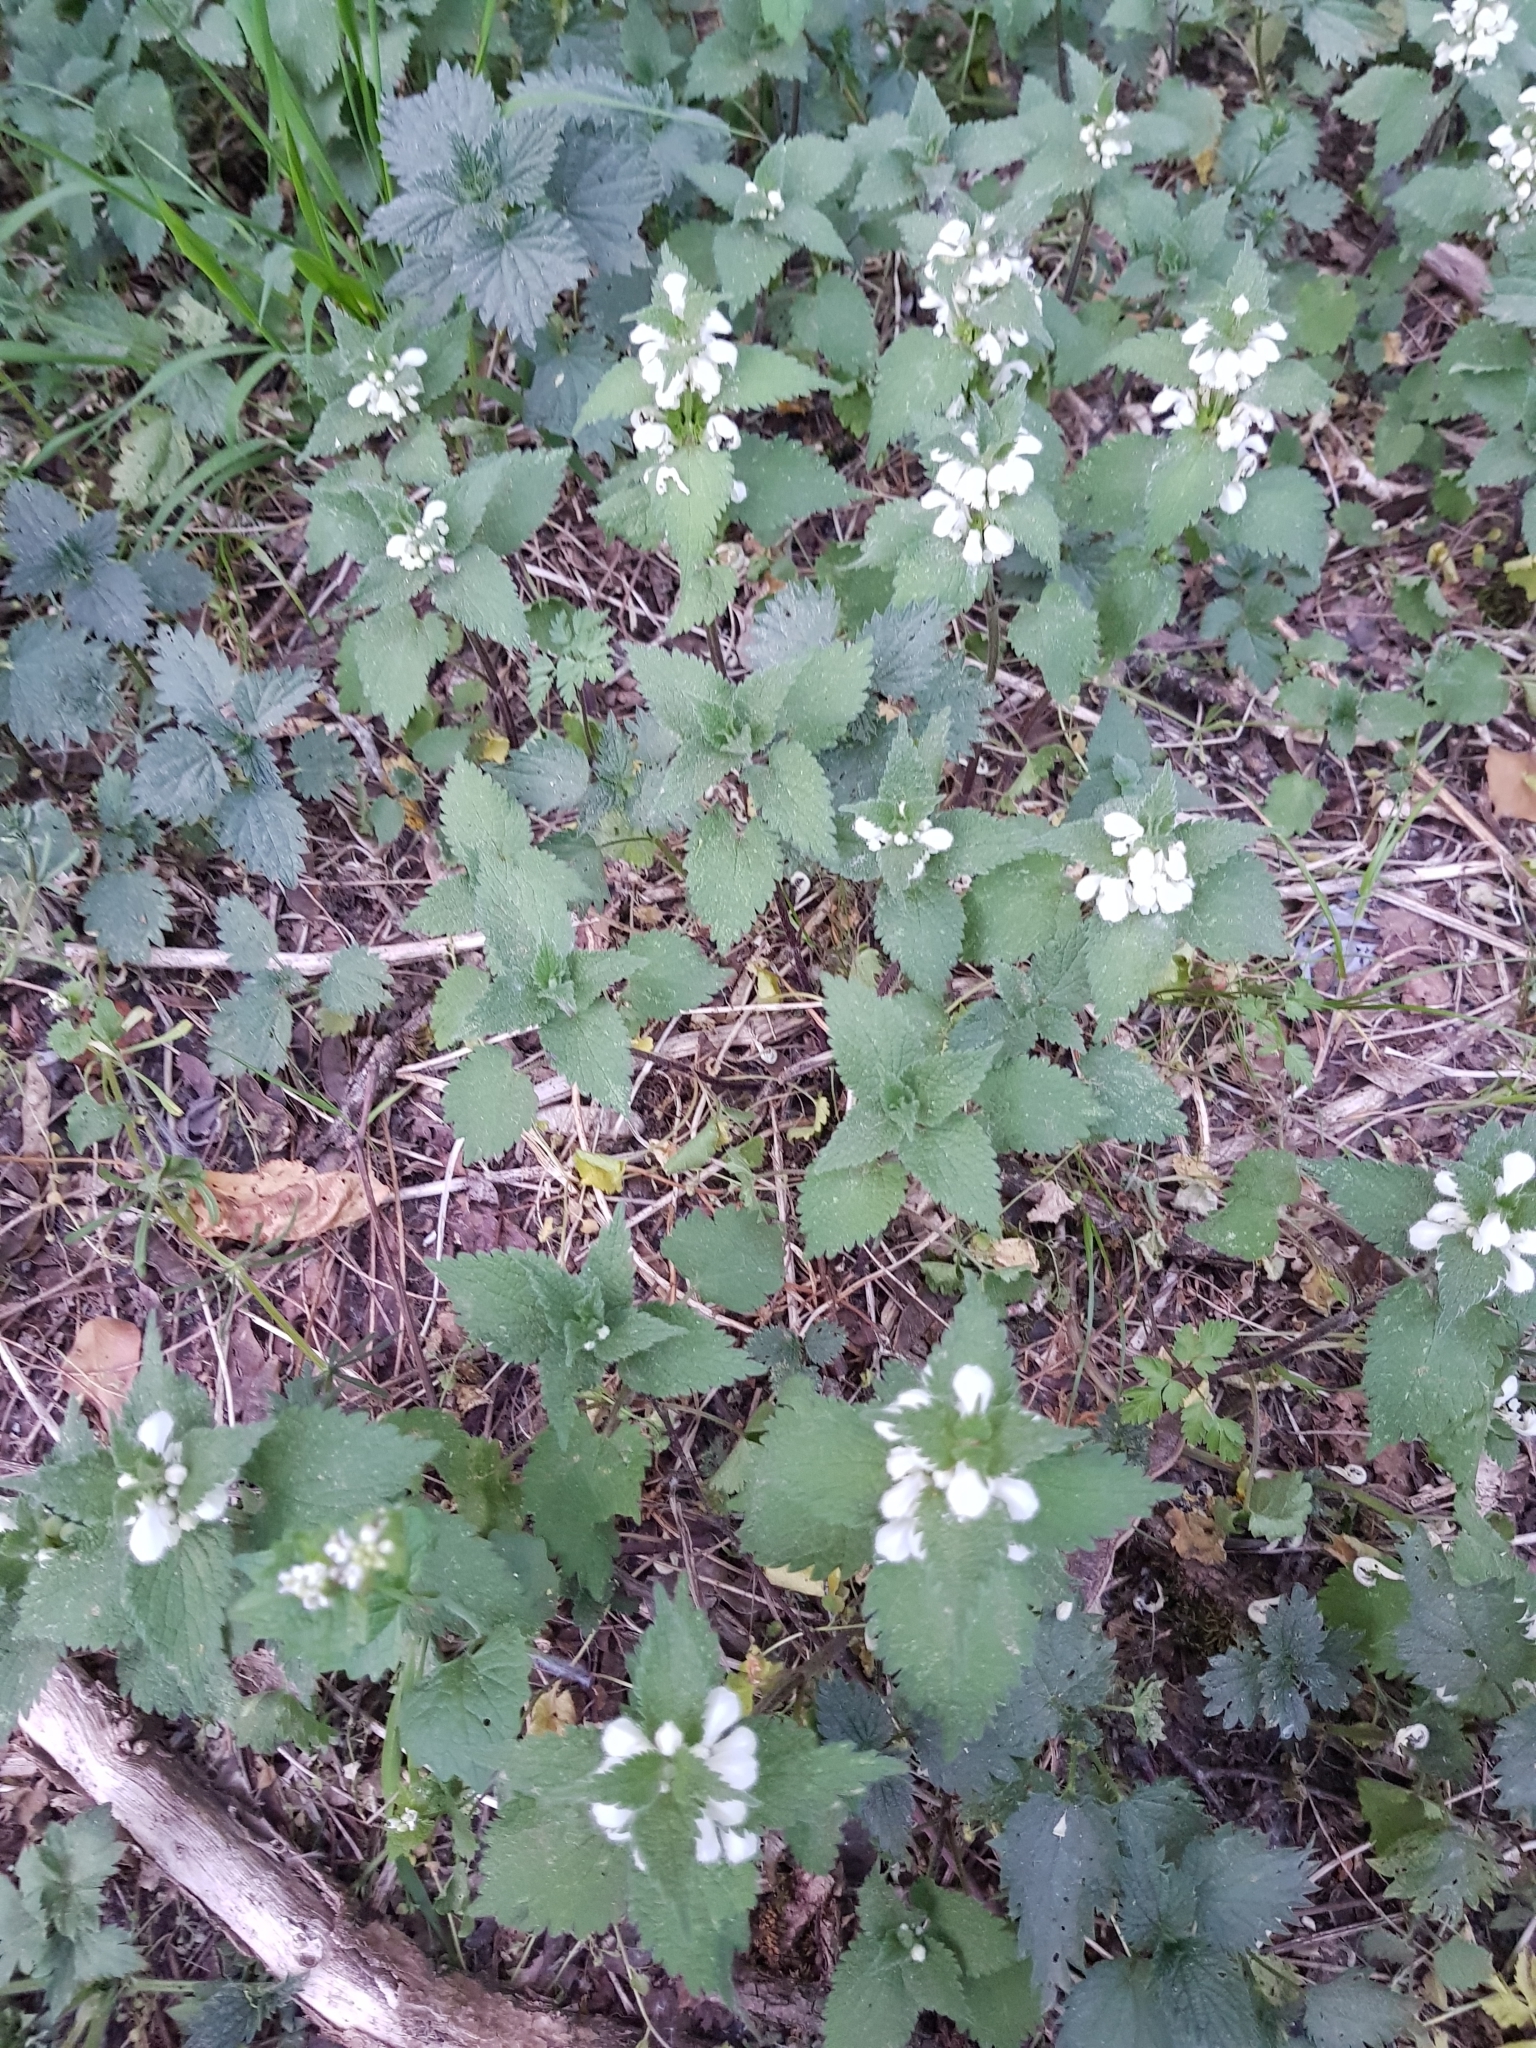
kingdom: Plantae
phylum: Tracheophyta
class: Magnoliopsida
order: Lamiales
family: Lamiaceae
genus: Lamium
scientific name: Lamium album
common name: White dead-nettle
